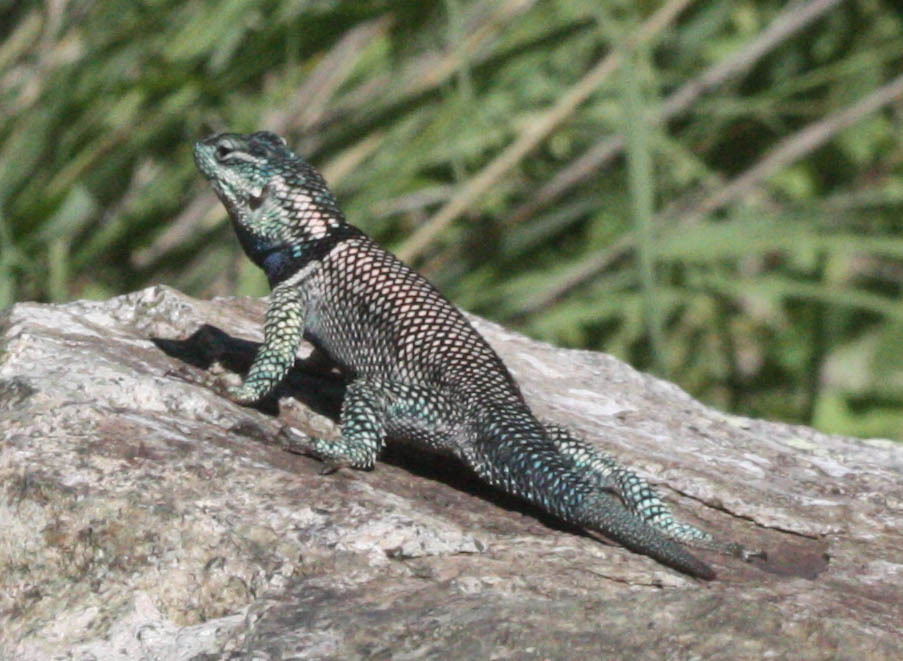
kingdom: Animalia
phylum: Chordata
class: Squamata
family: Phrynosomatidae
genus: Sceloporus
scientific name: Sceloporus jarrovii
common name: Yarrow's spiny lizard
